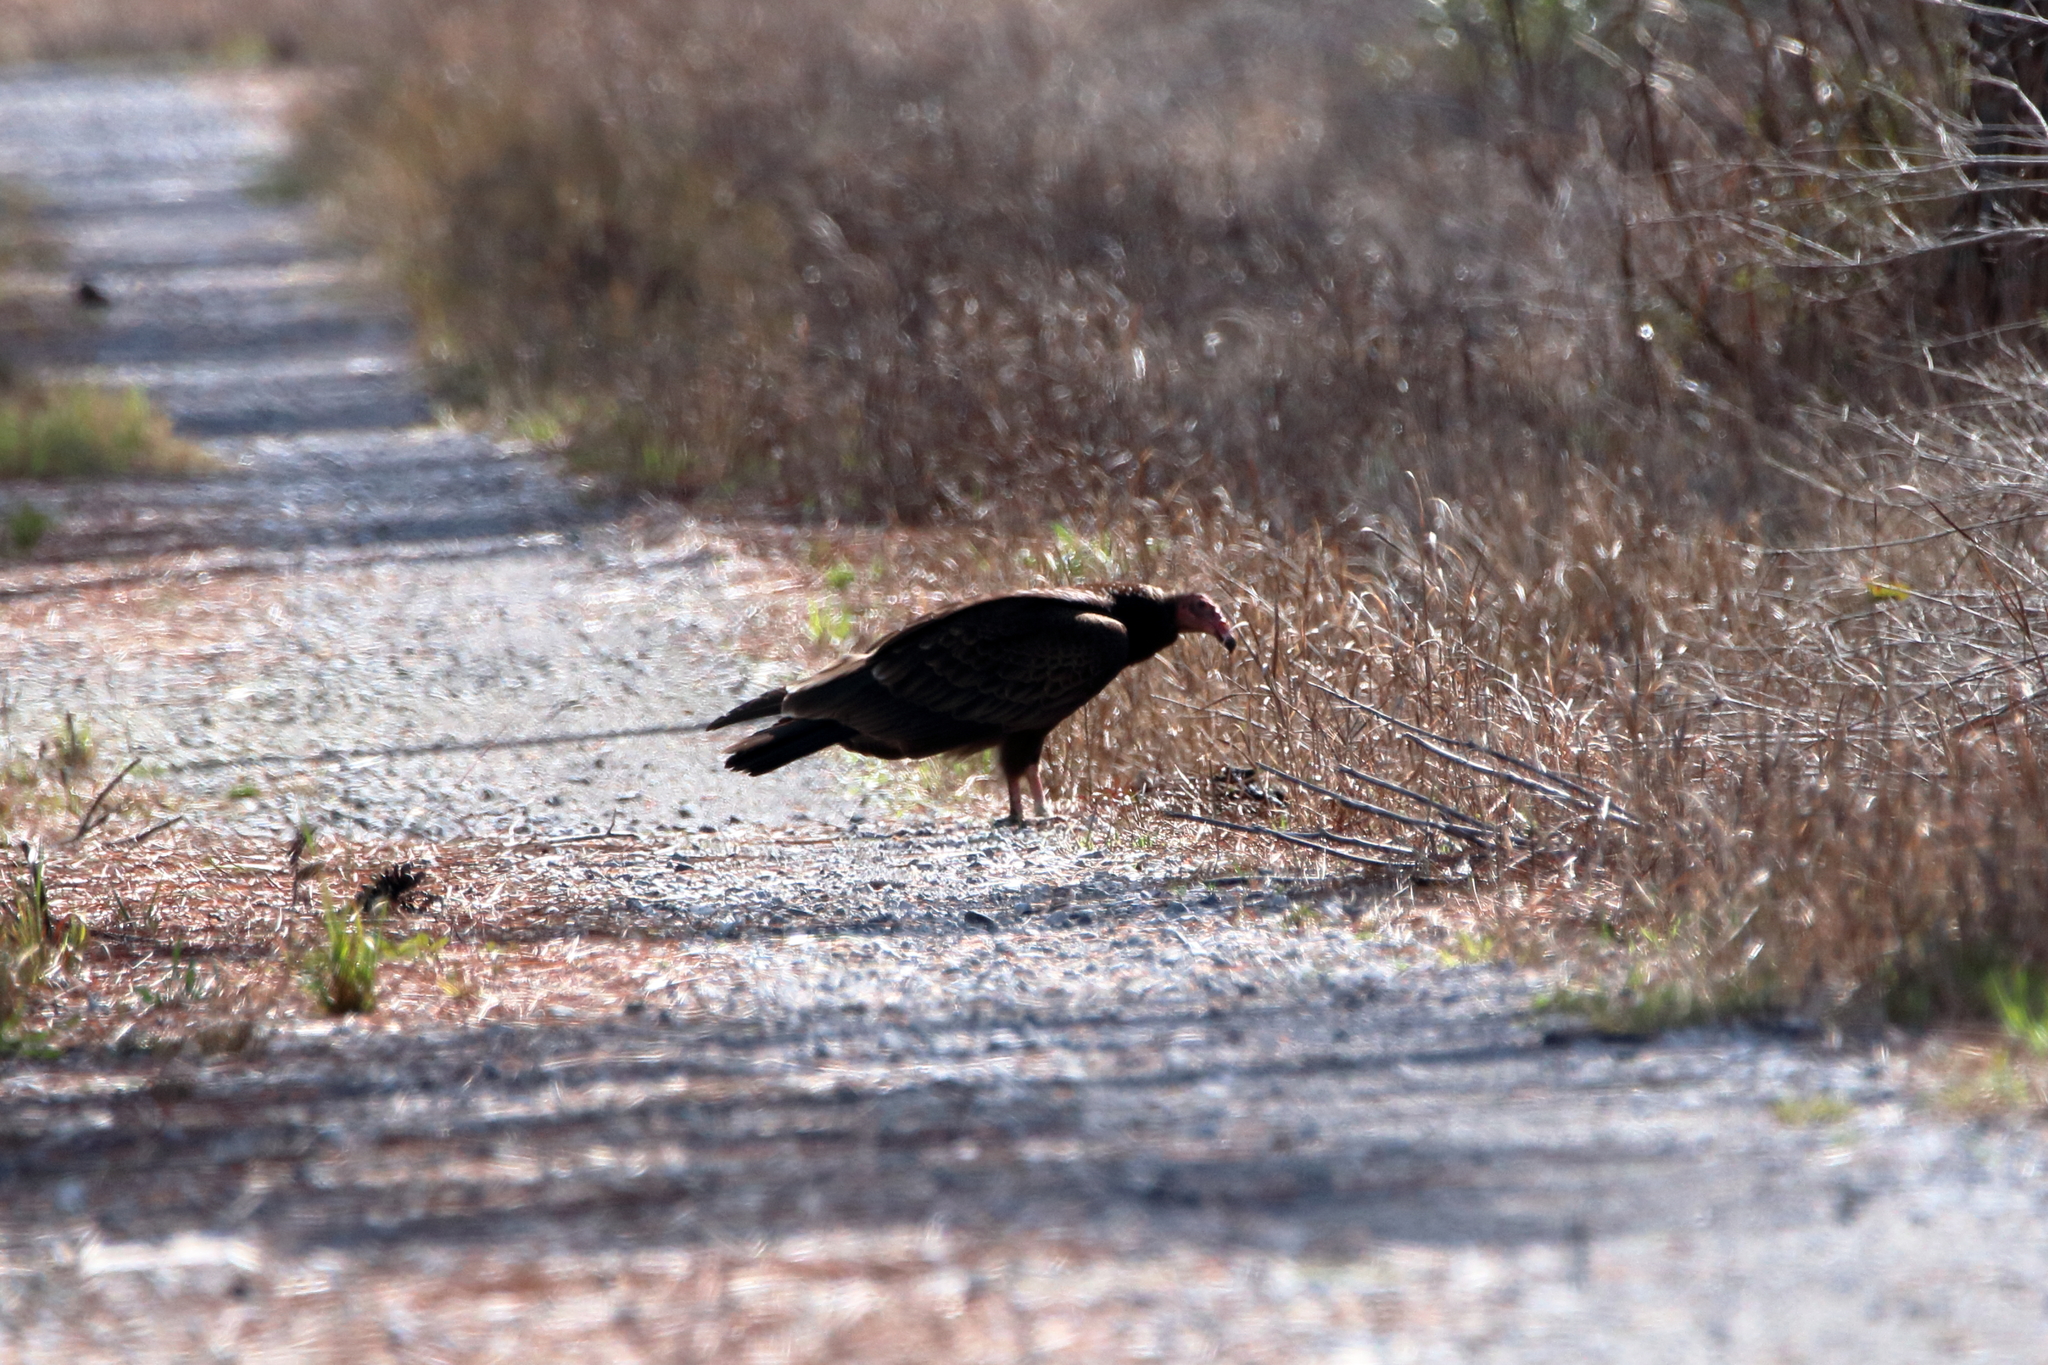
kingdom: Animalia
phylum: Chordata
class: Aves
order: Accipitriformes
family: Cathartidae
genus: Cathartes
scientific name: Cathartes aura
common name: Turkey vulture
